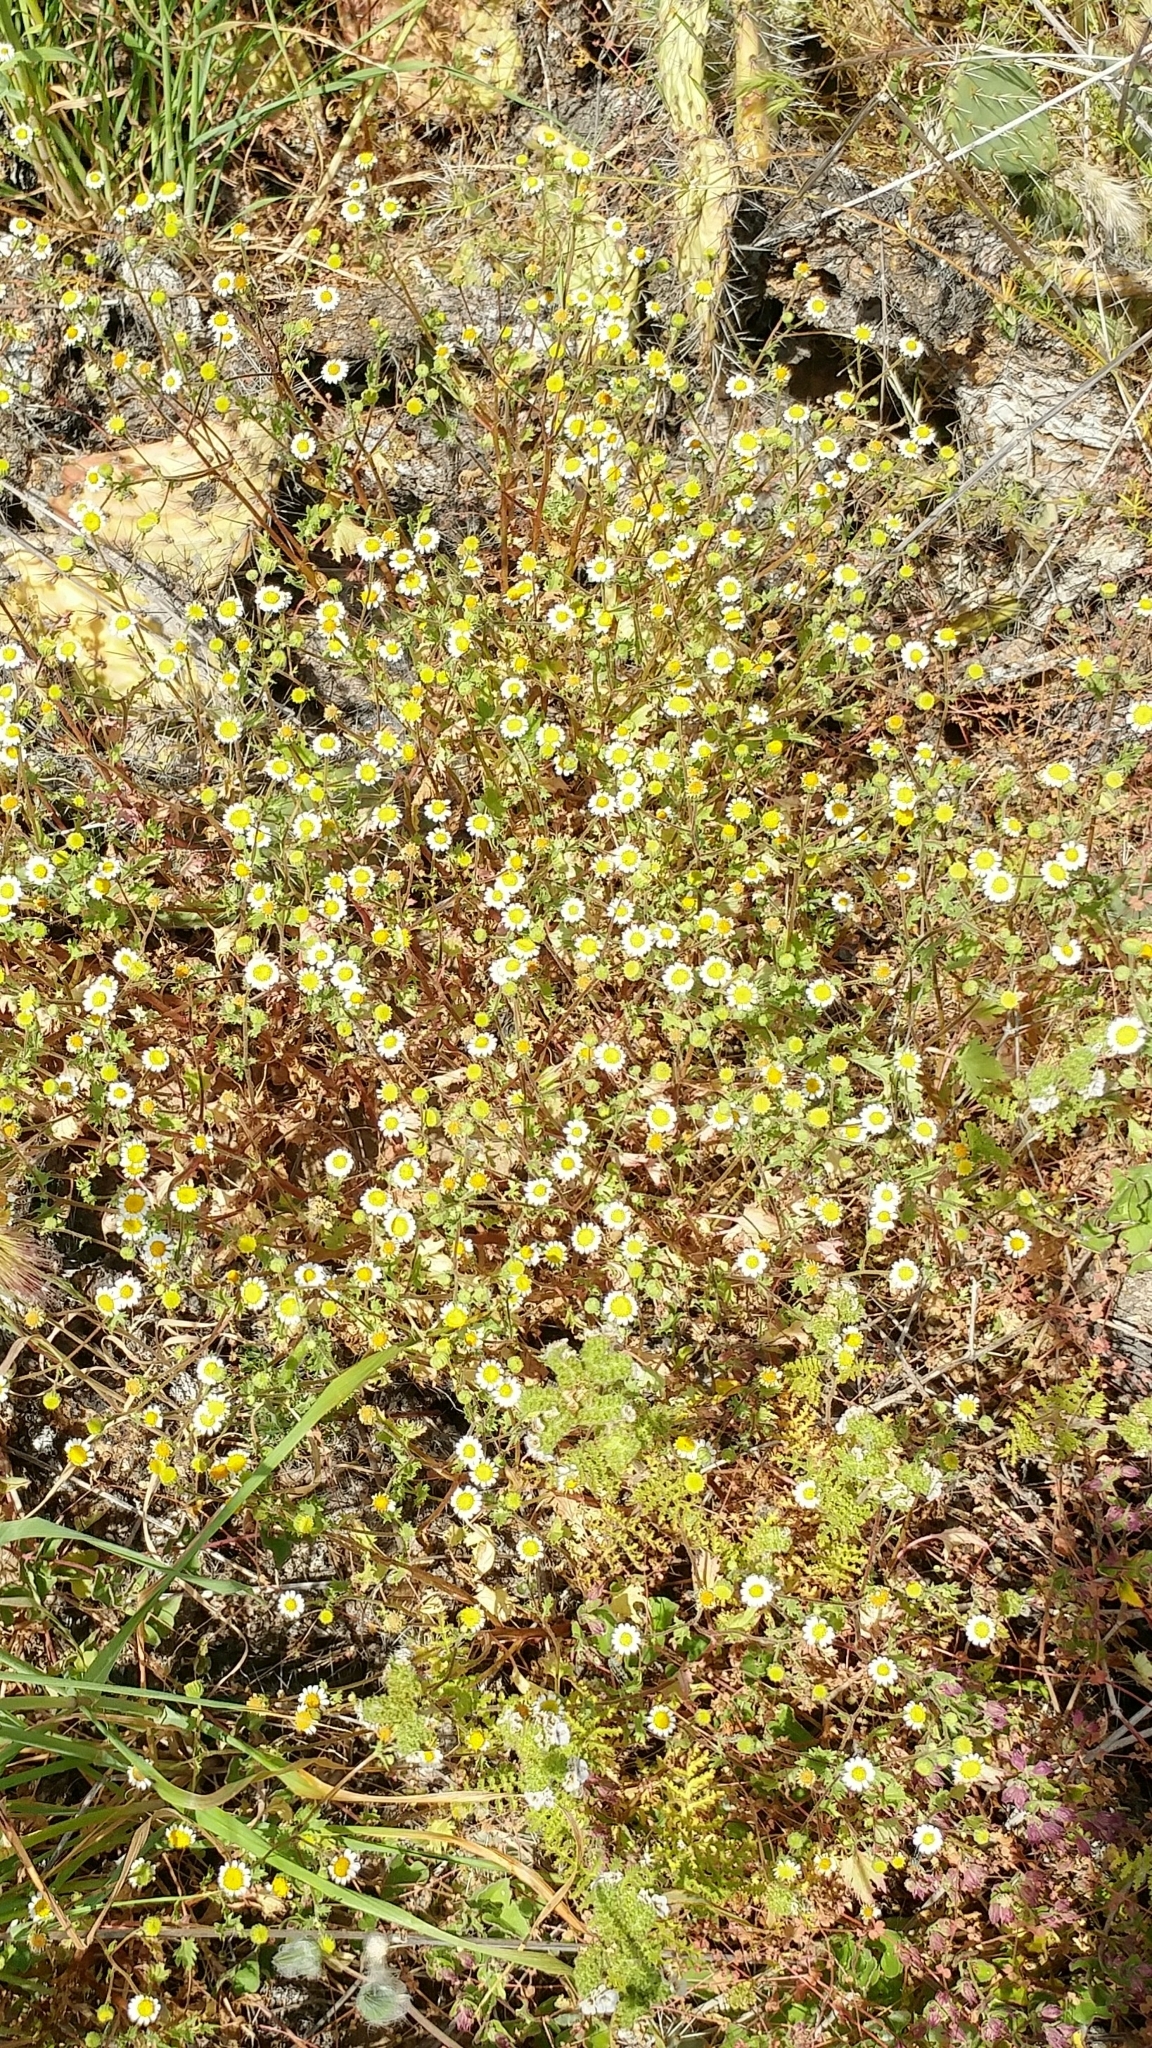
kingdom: Plantae
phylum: Tracheophyta
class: Magnoliopsida
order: Asterales
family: Asteraceae
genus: Laphamia
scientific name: Laphamia emoryi
